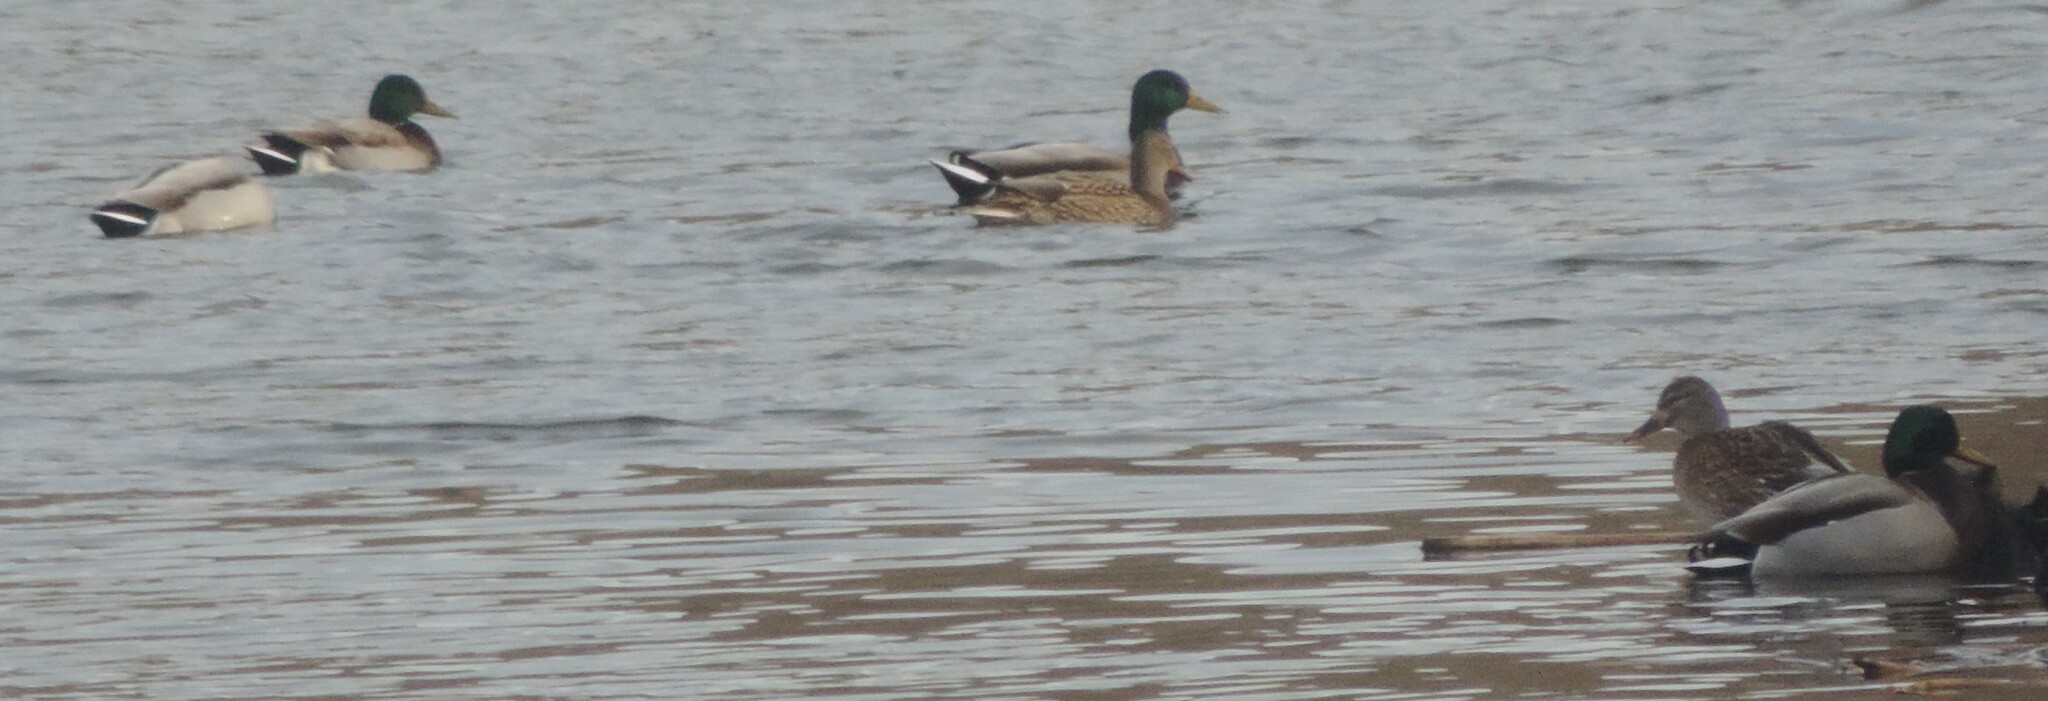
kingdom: Animalia
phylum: Chordata
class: Aves
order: Anseriformes
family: Anatidae
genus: Anas
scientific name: Anas platyrhynchos
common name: Mallard
